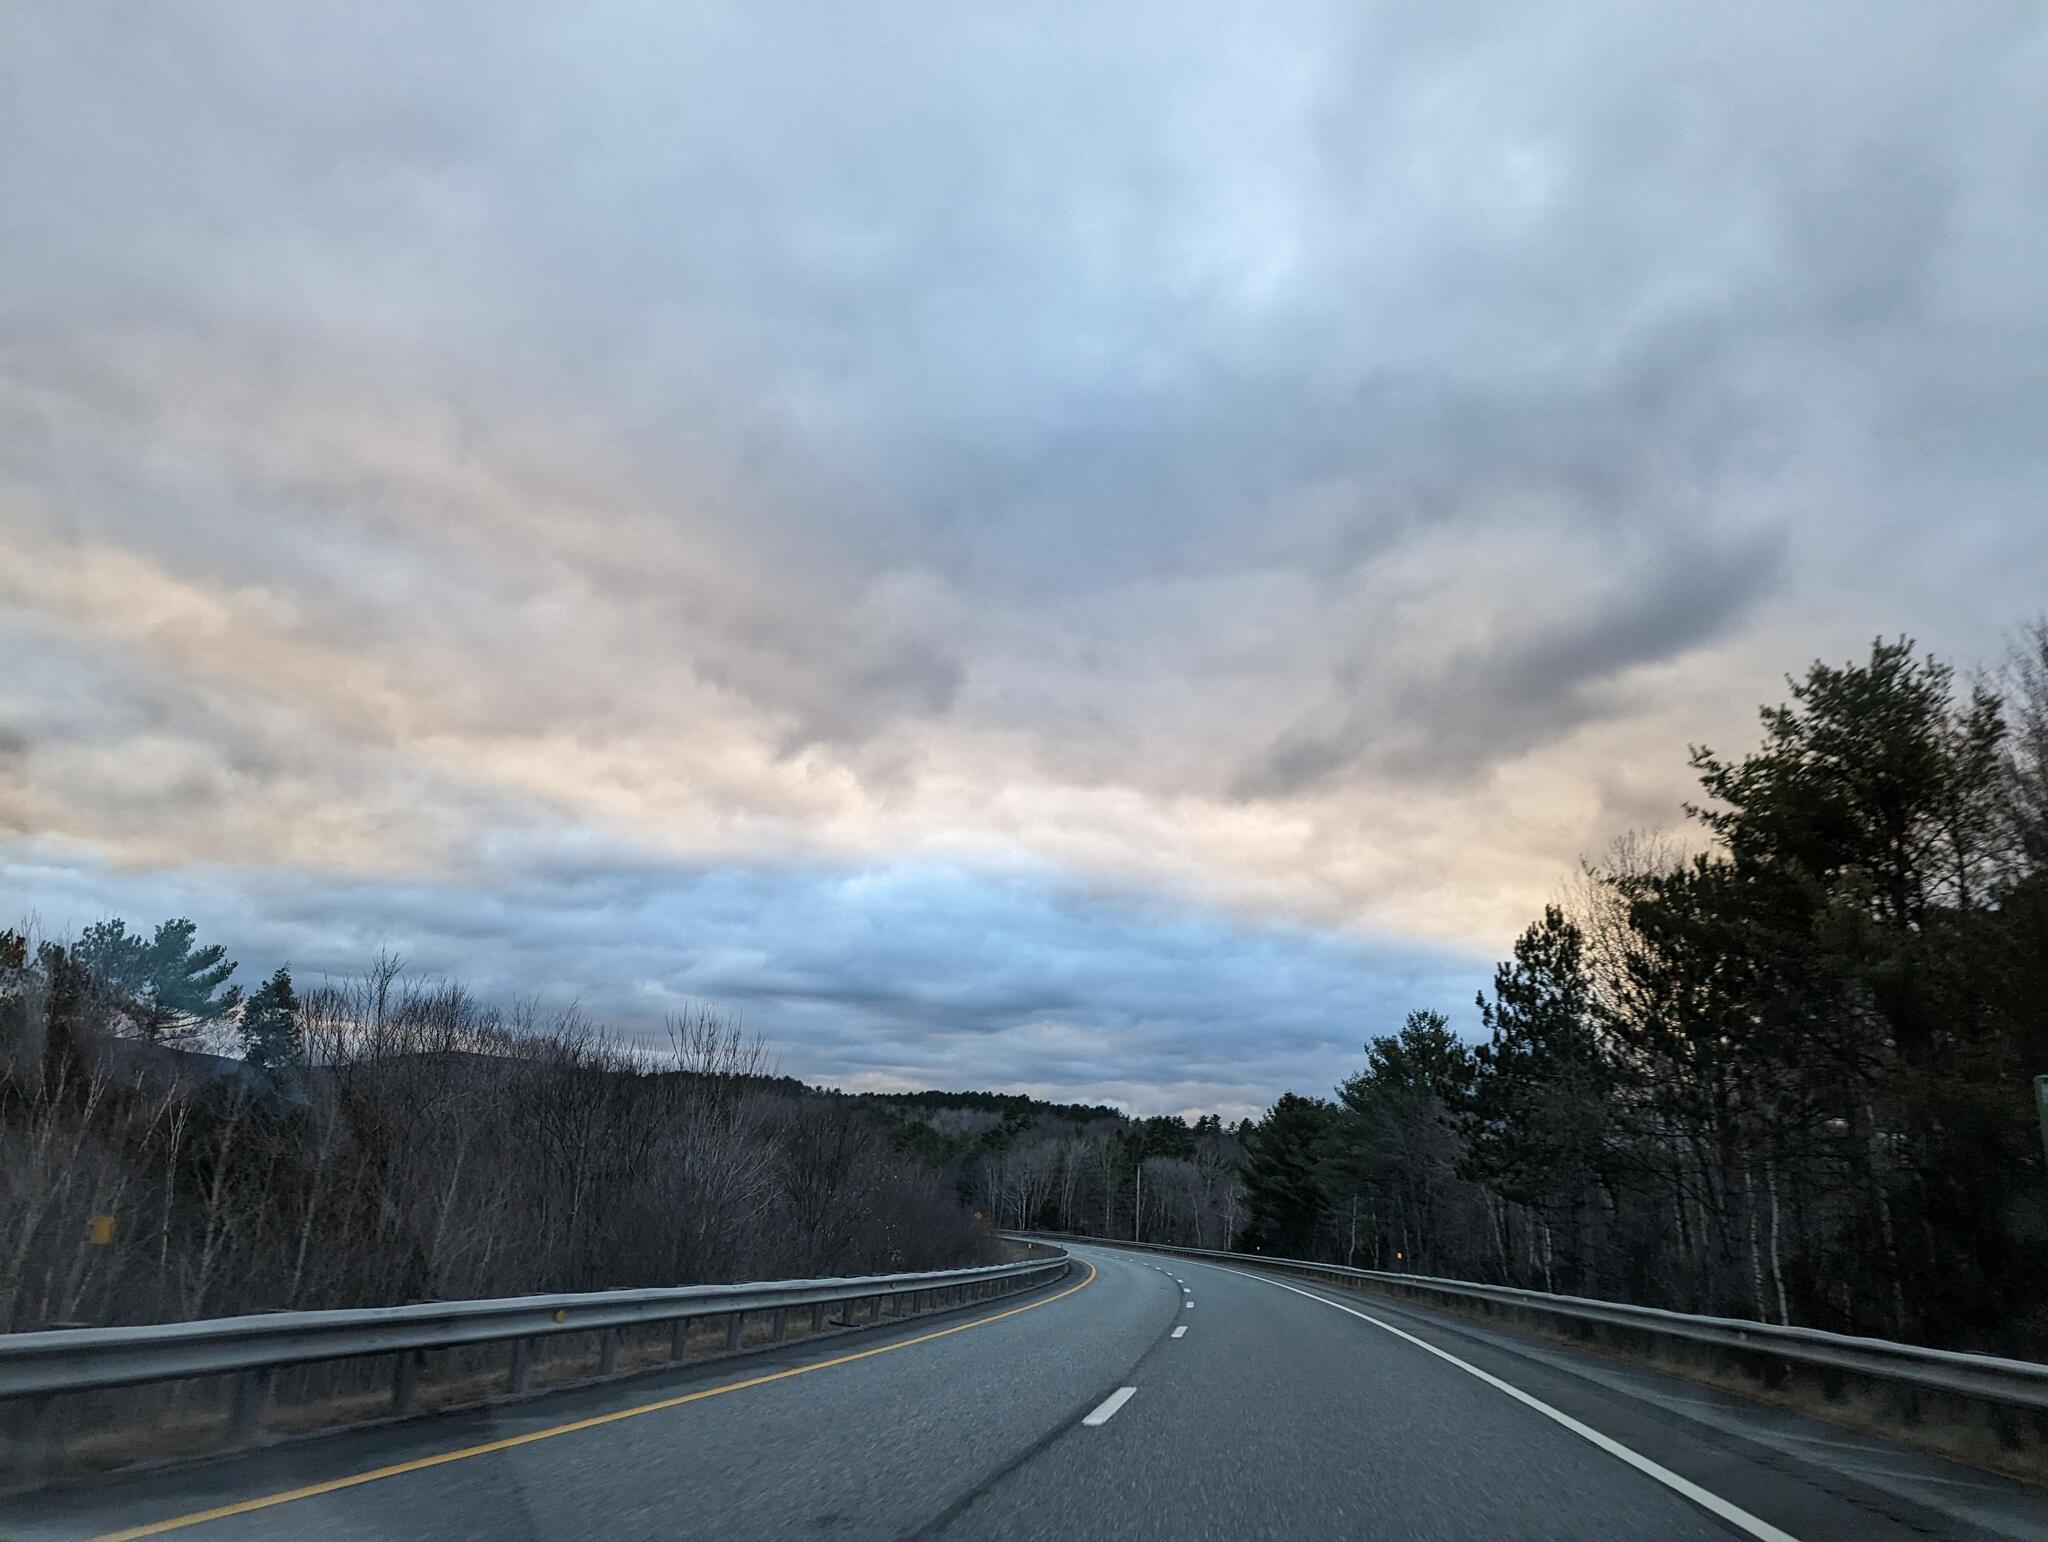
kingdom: Plantae
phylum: Tracheophyta
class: Pinopsida
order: Pinales
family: Pinaceae
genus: Pinus
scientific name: Pinus strobus
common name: Weymouth pine
